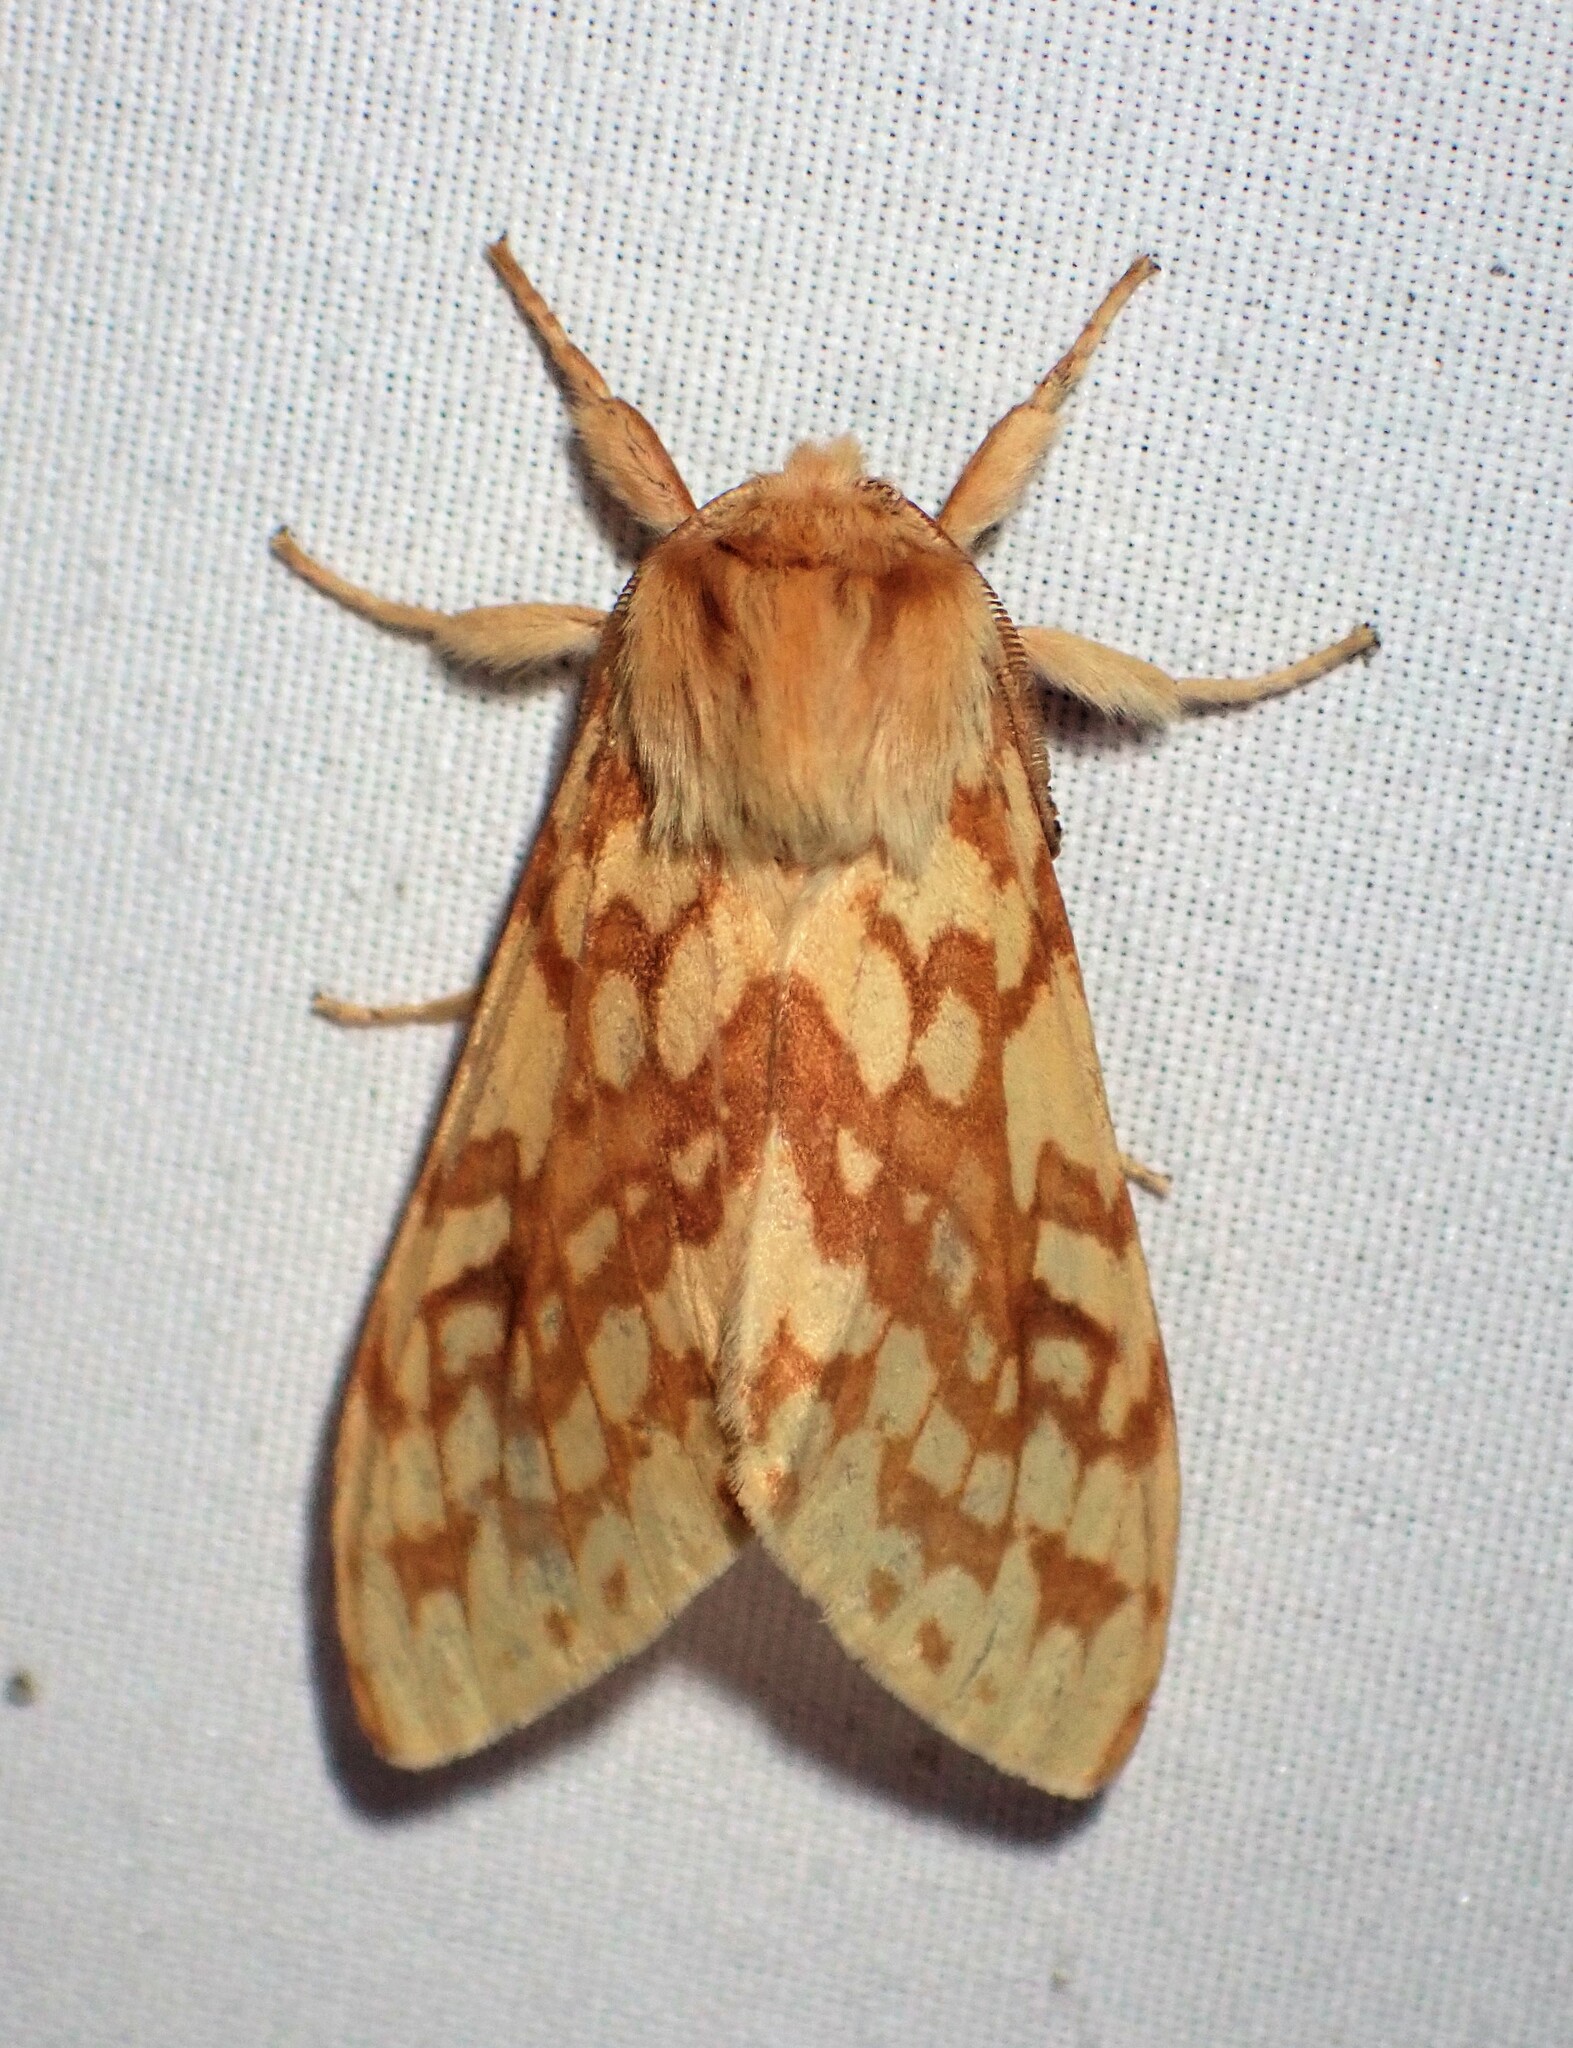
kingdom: Animalia
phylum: Arthropoda
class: Insecta
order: Lepidoptera
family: Erebidae
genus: Lophocampa
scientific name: Lophocampa maculata
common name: Spotted tussock moth
